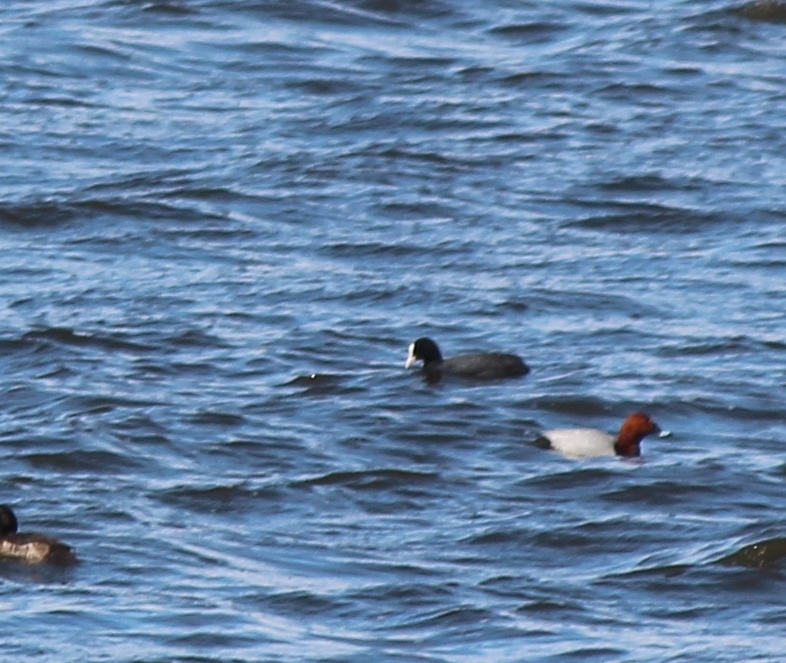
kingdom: Animalia
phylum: Chordata
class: Aves
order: Gruiformes
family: Rallidae
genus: Fulica
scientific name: Fulica atra
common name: Eurasian coot
